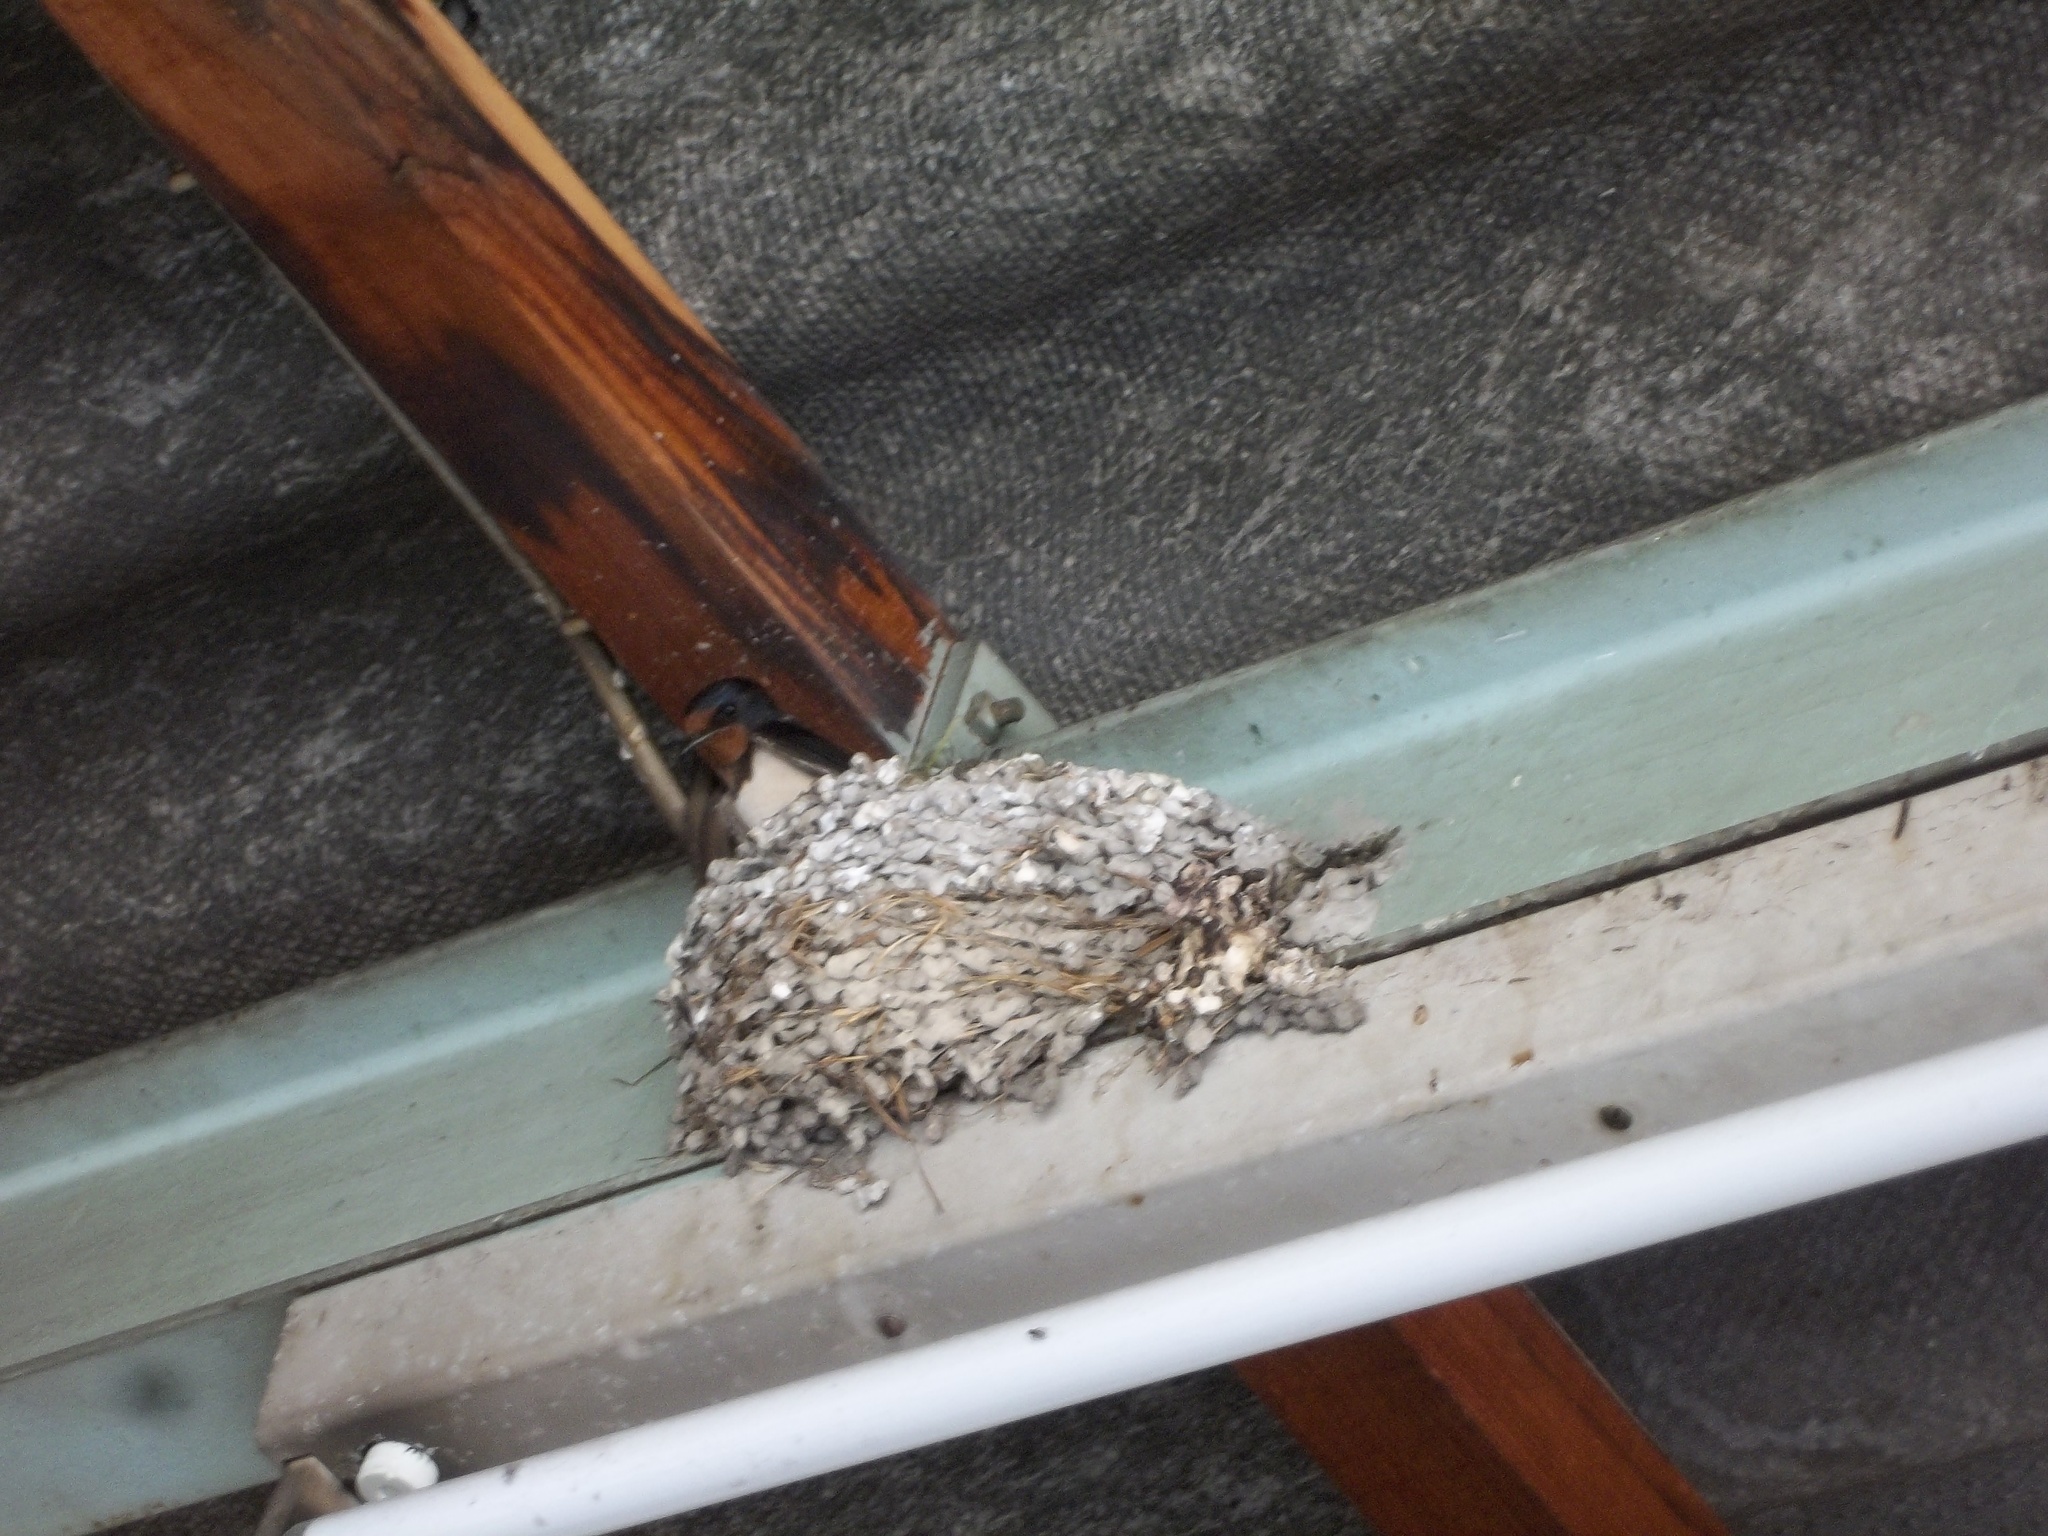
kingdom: Animalia
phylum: Chordata
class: Aves
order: Passeriformes
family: Hirundinidae
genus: Hirundo
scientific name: Hirundo rustica
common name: Barn swallow
